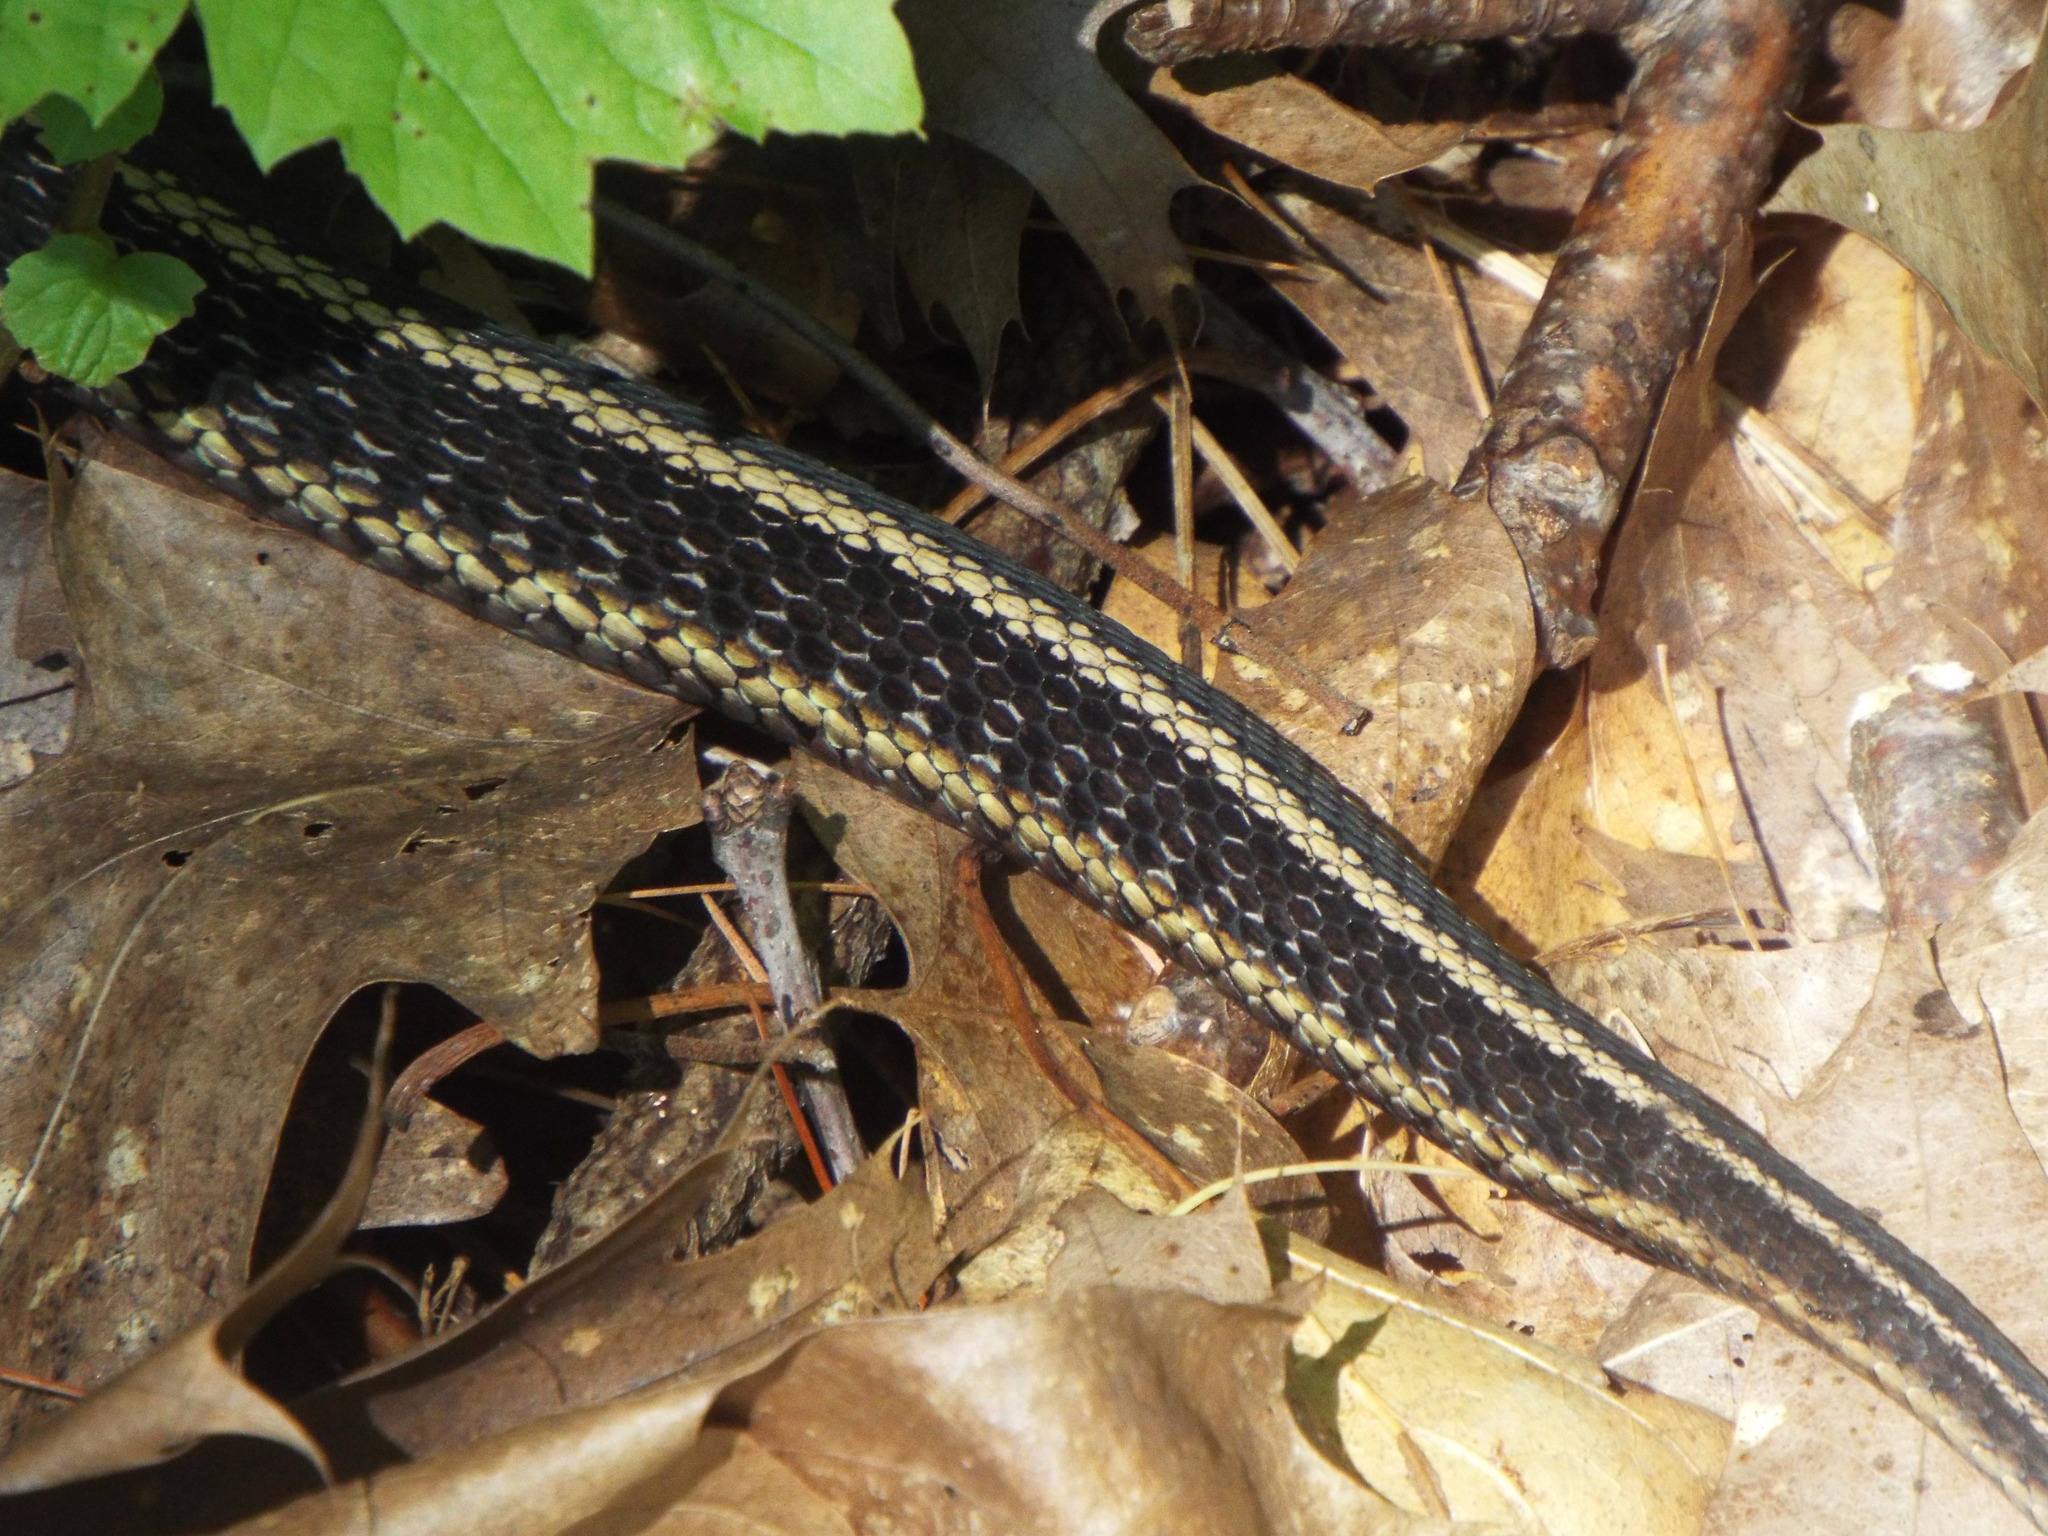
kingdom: Animalia
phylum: Chordata
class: Squamata
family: Colubridae
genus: Thamnophis
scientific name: Thamnophis sirtalis
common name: Common garter snake
